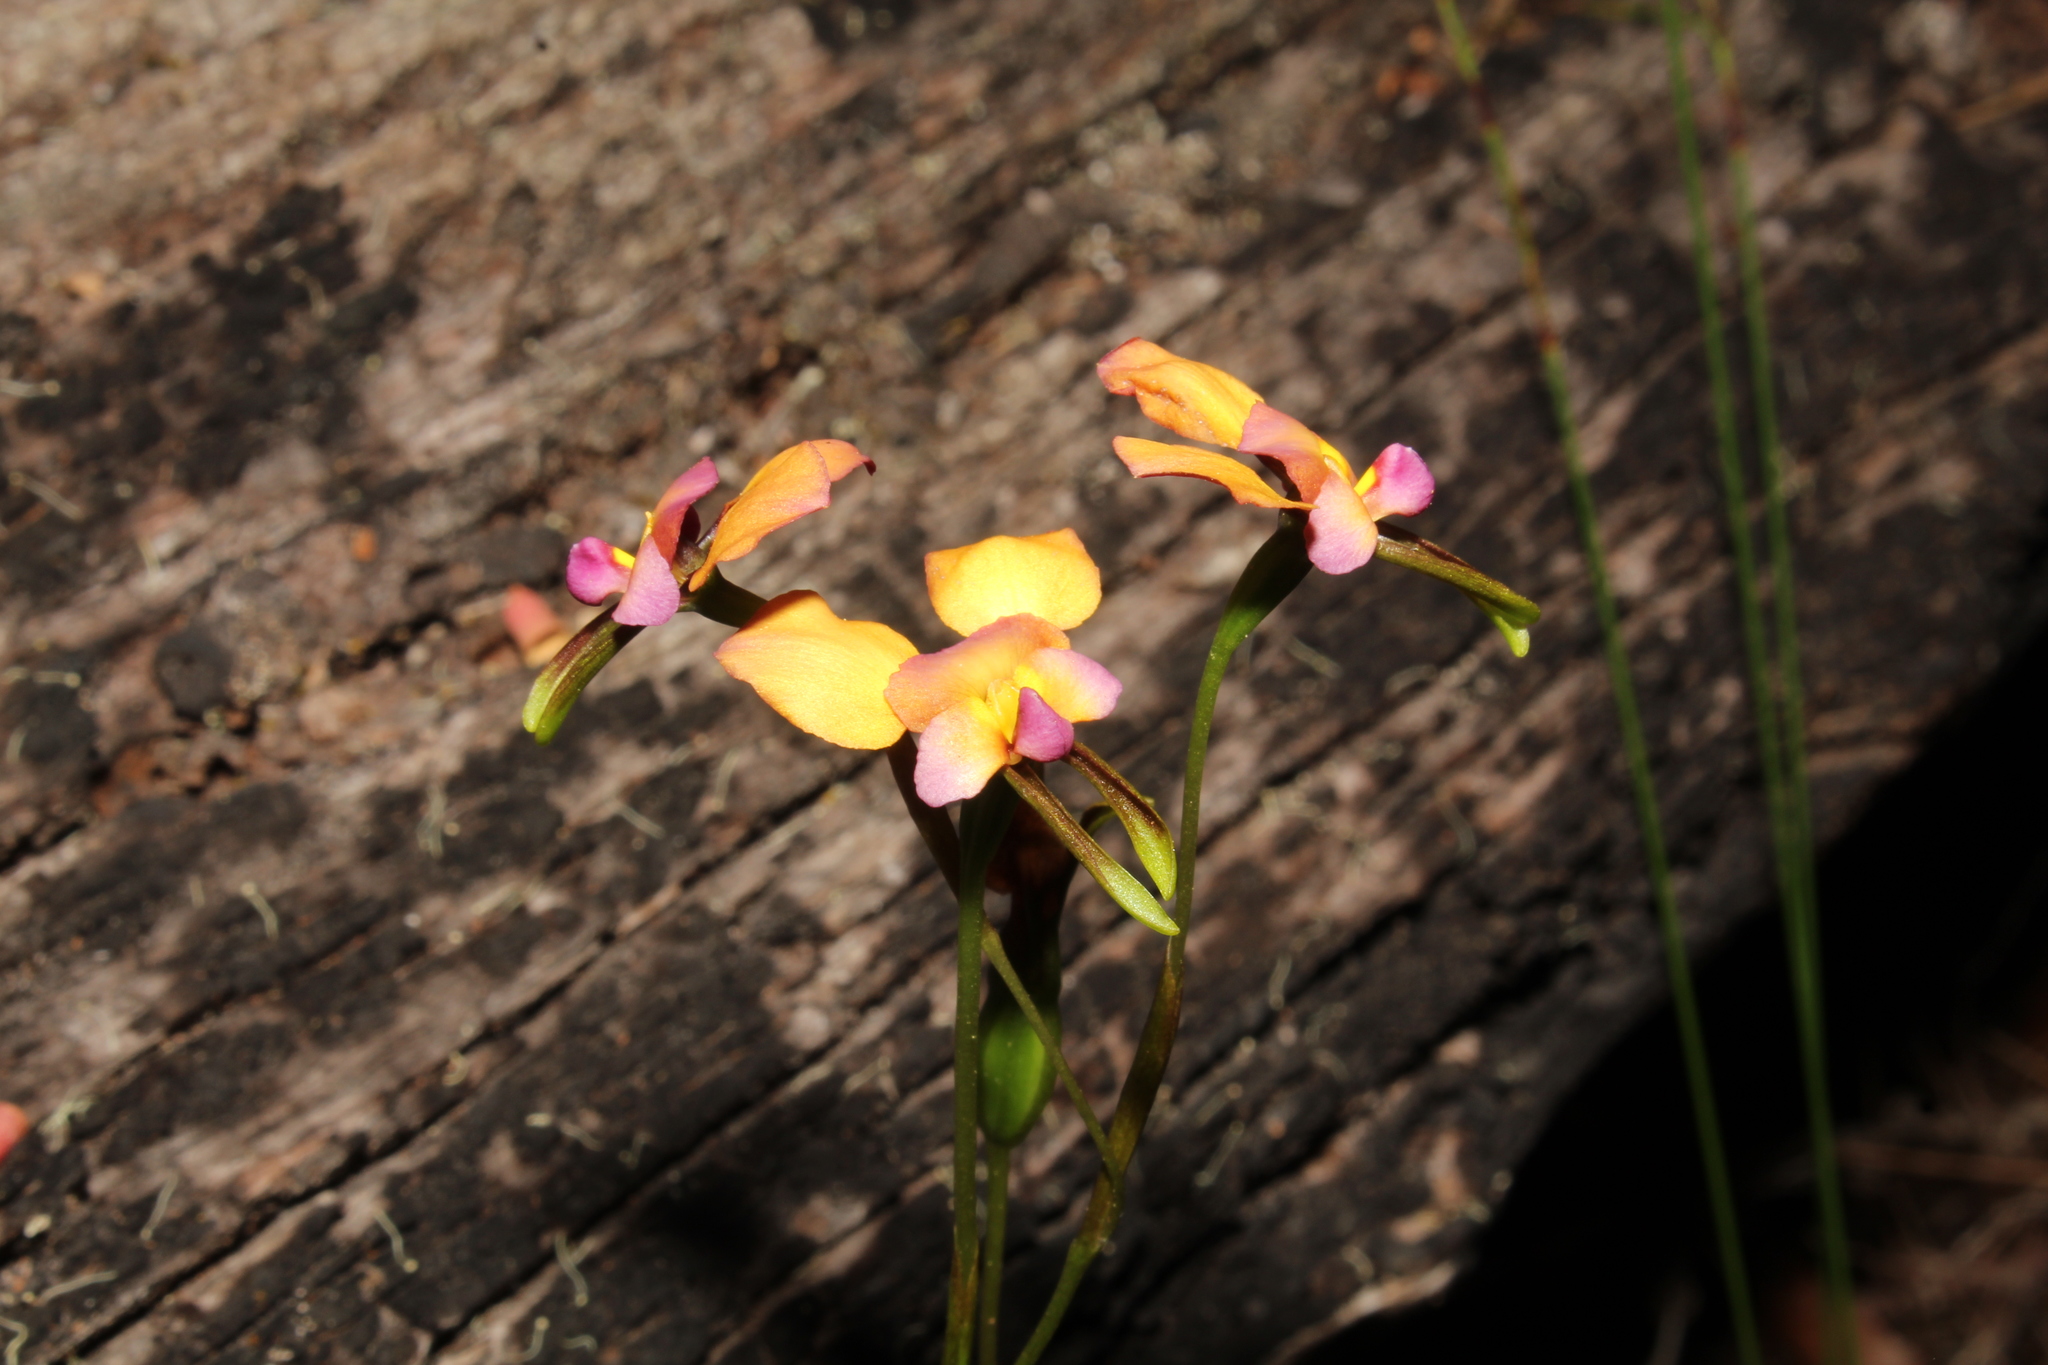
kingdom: Plantae
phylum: Tracheophyta
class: Liliopsida
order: Asparagales
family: Orchidaceae
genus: Diuris
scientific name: Diuris longifolia
